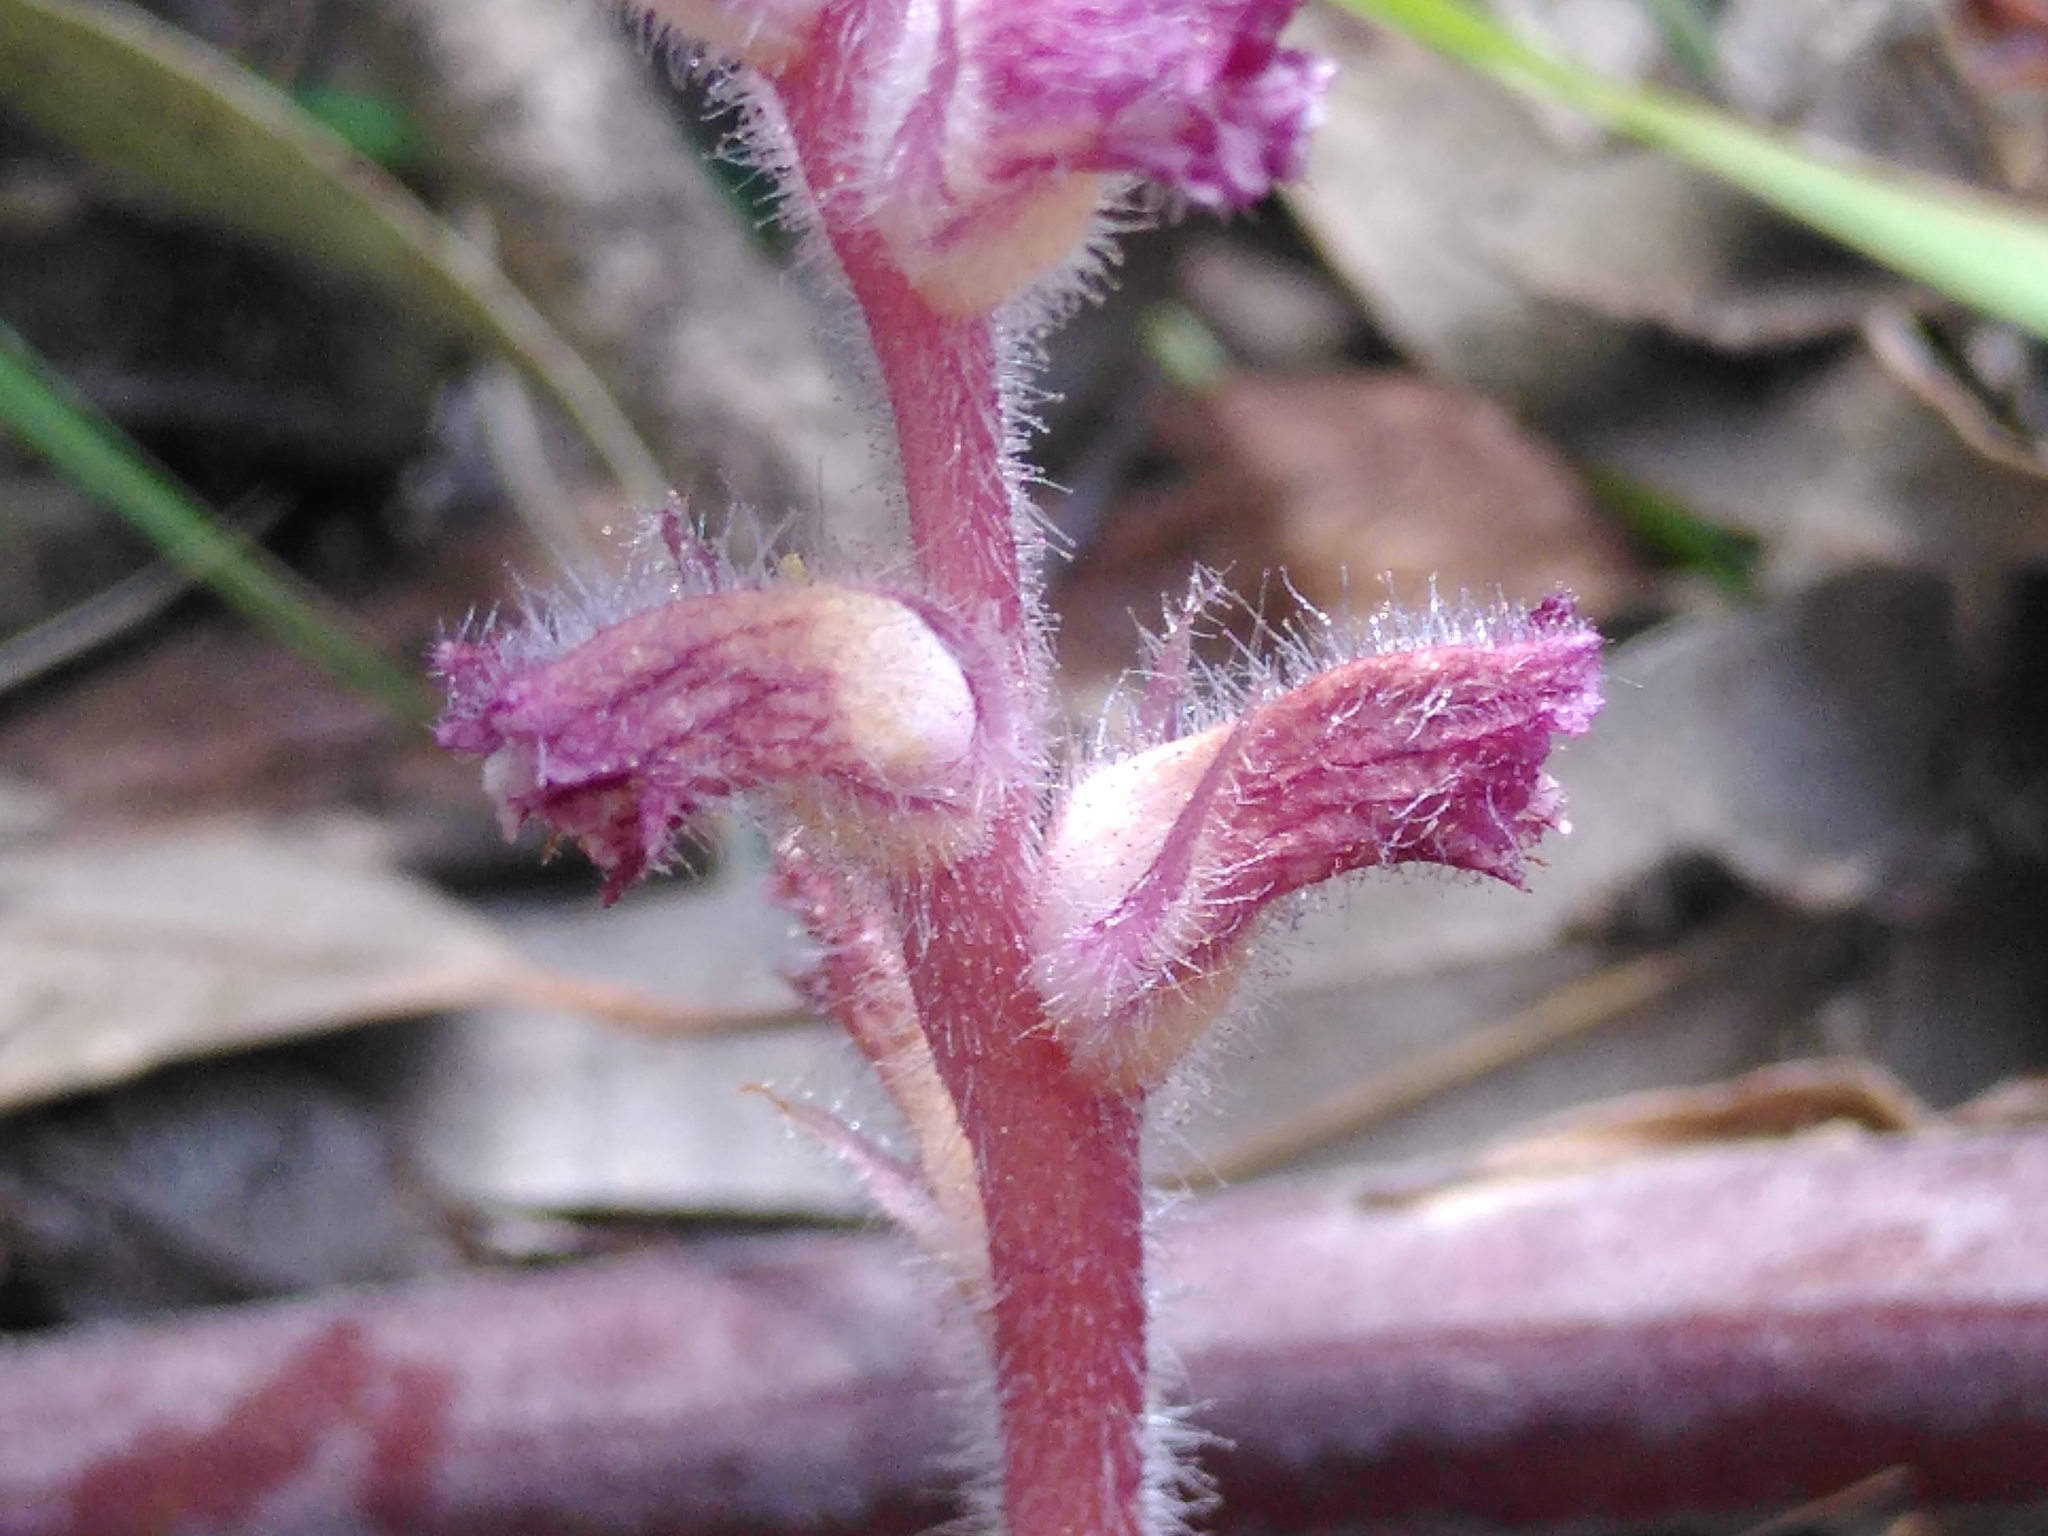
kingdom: Plantae
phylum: Tracheophyta
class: Magnoliopsida
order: Lamiales
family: Orobanchaceae
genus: Orobanche
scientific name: Orobanche pubescens
